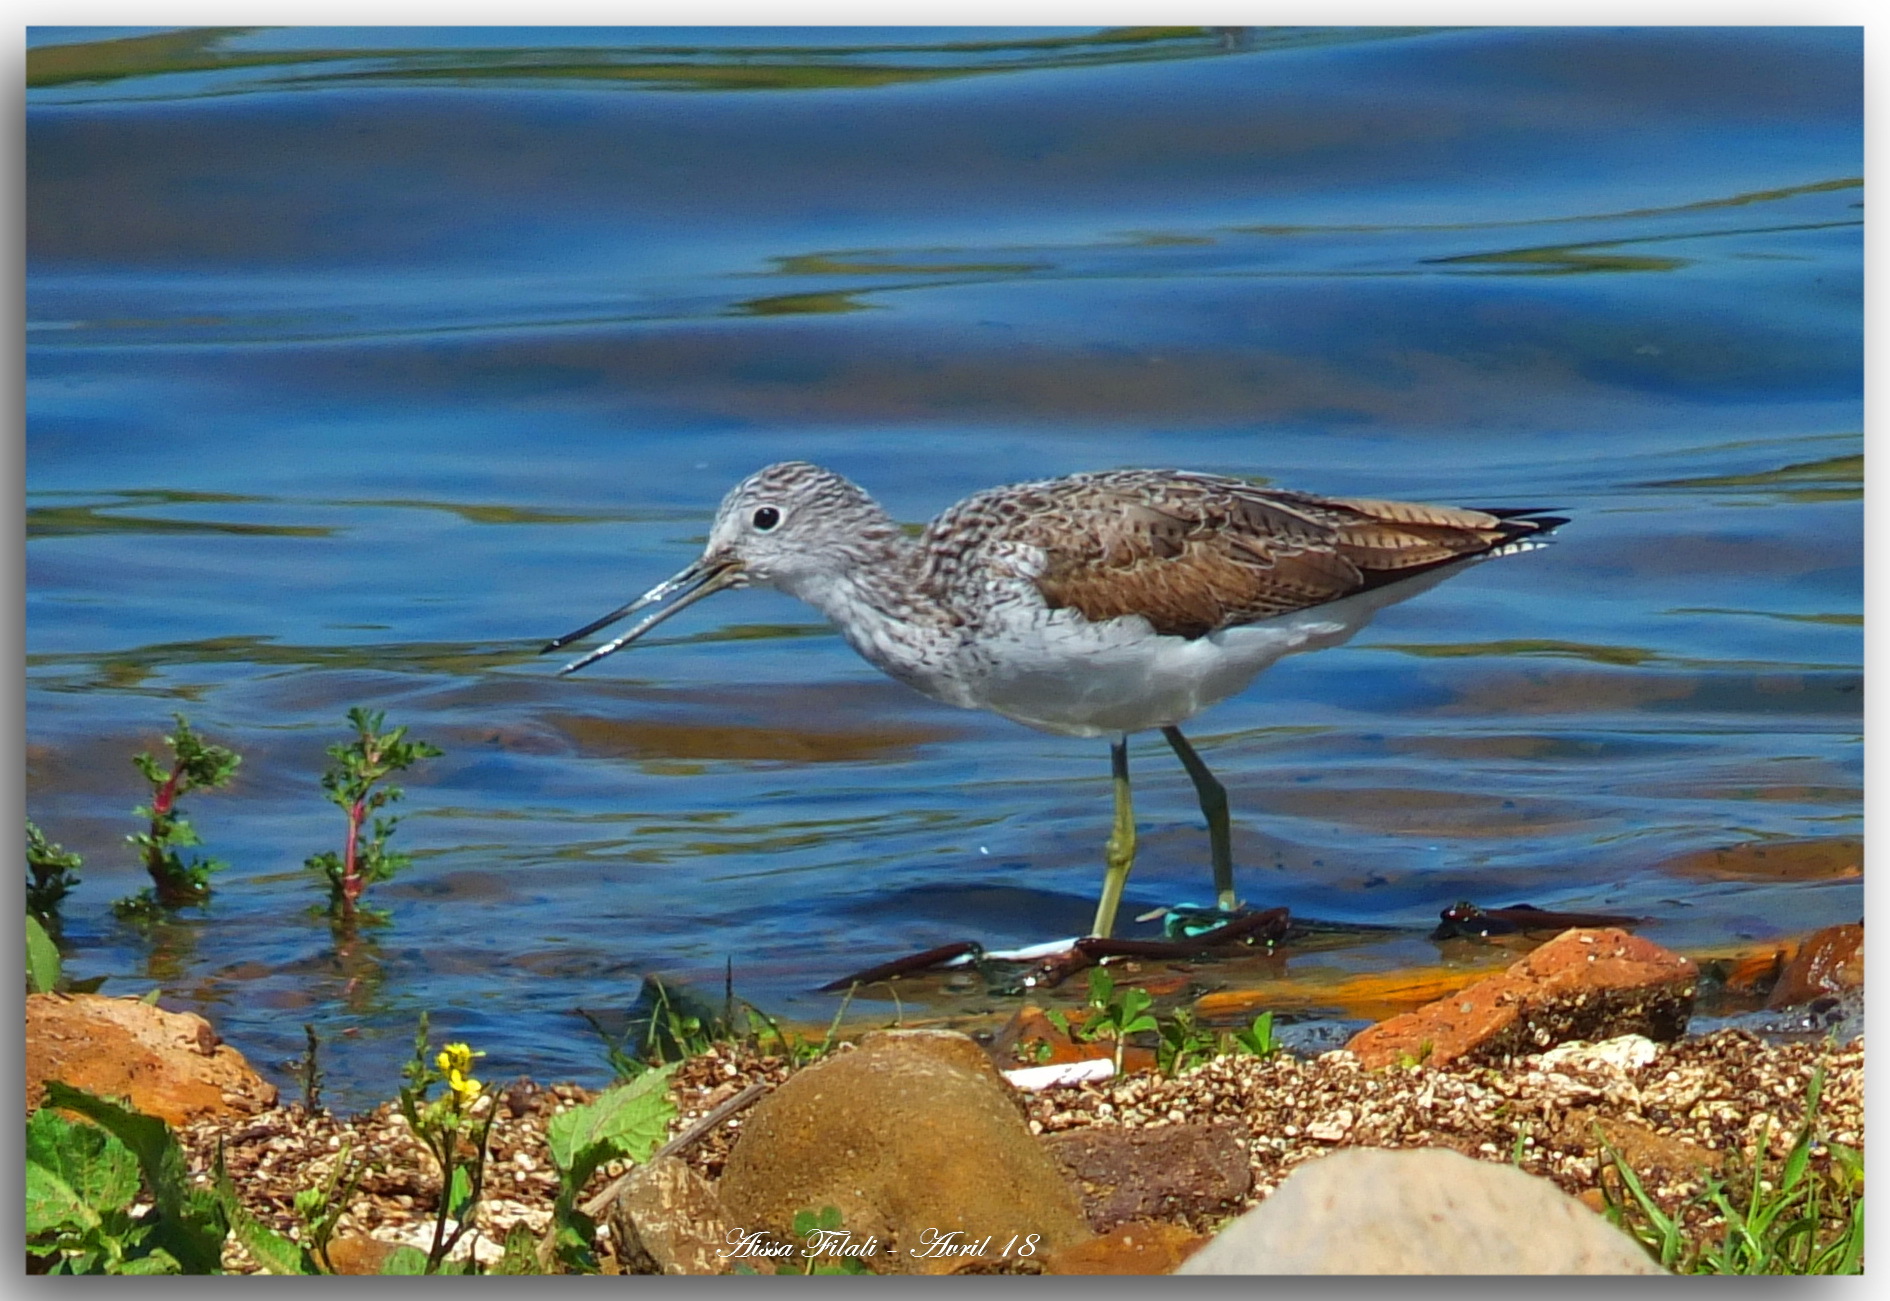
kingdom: Animalia
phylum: Chordata
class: Aves
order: Charadriiformes
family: Scolopacidae
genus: Tringa
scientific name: Tringa nebularia
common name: Common greenshank
